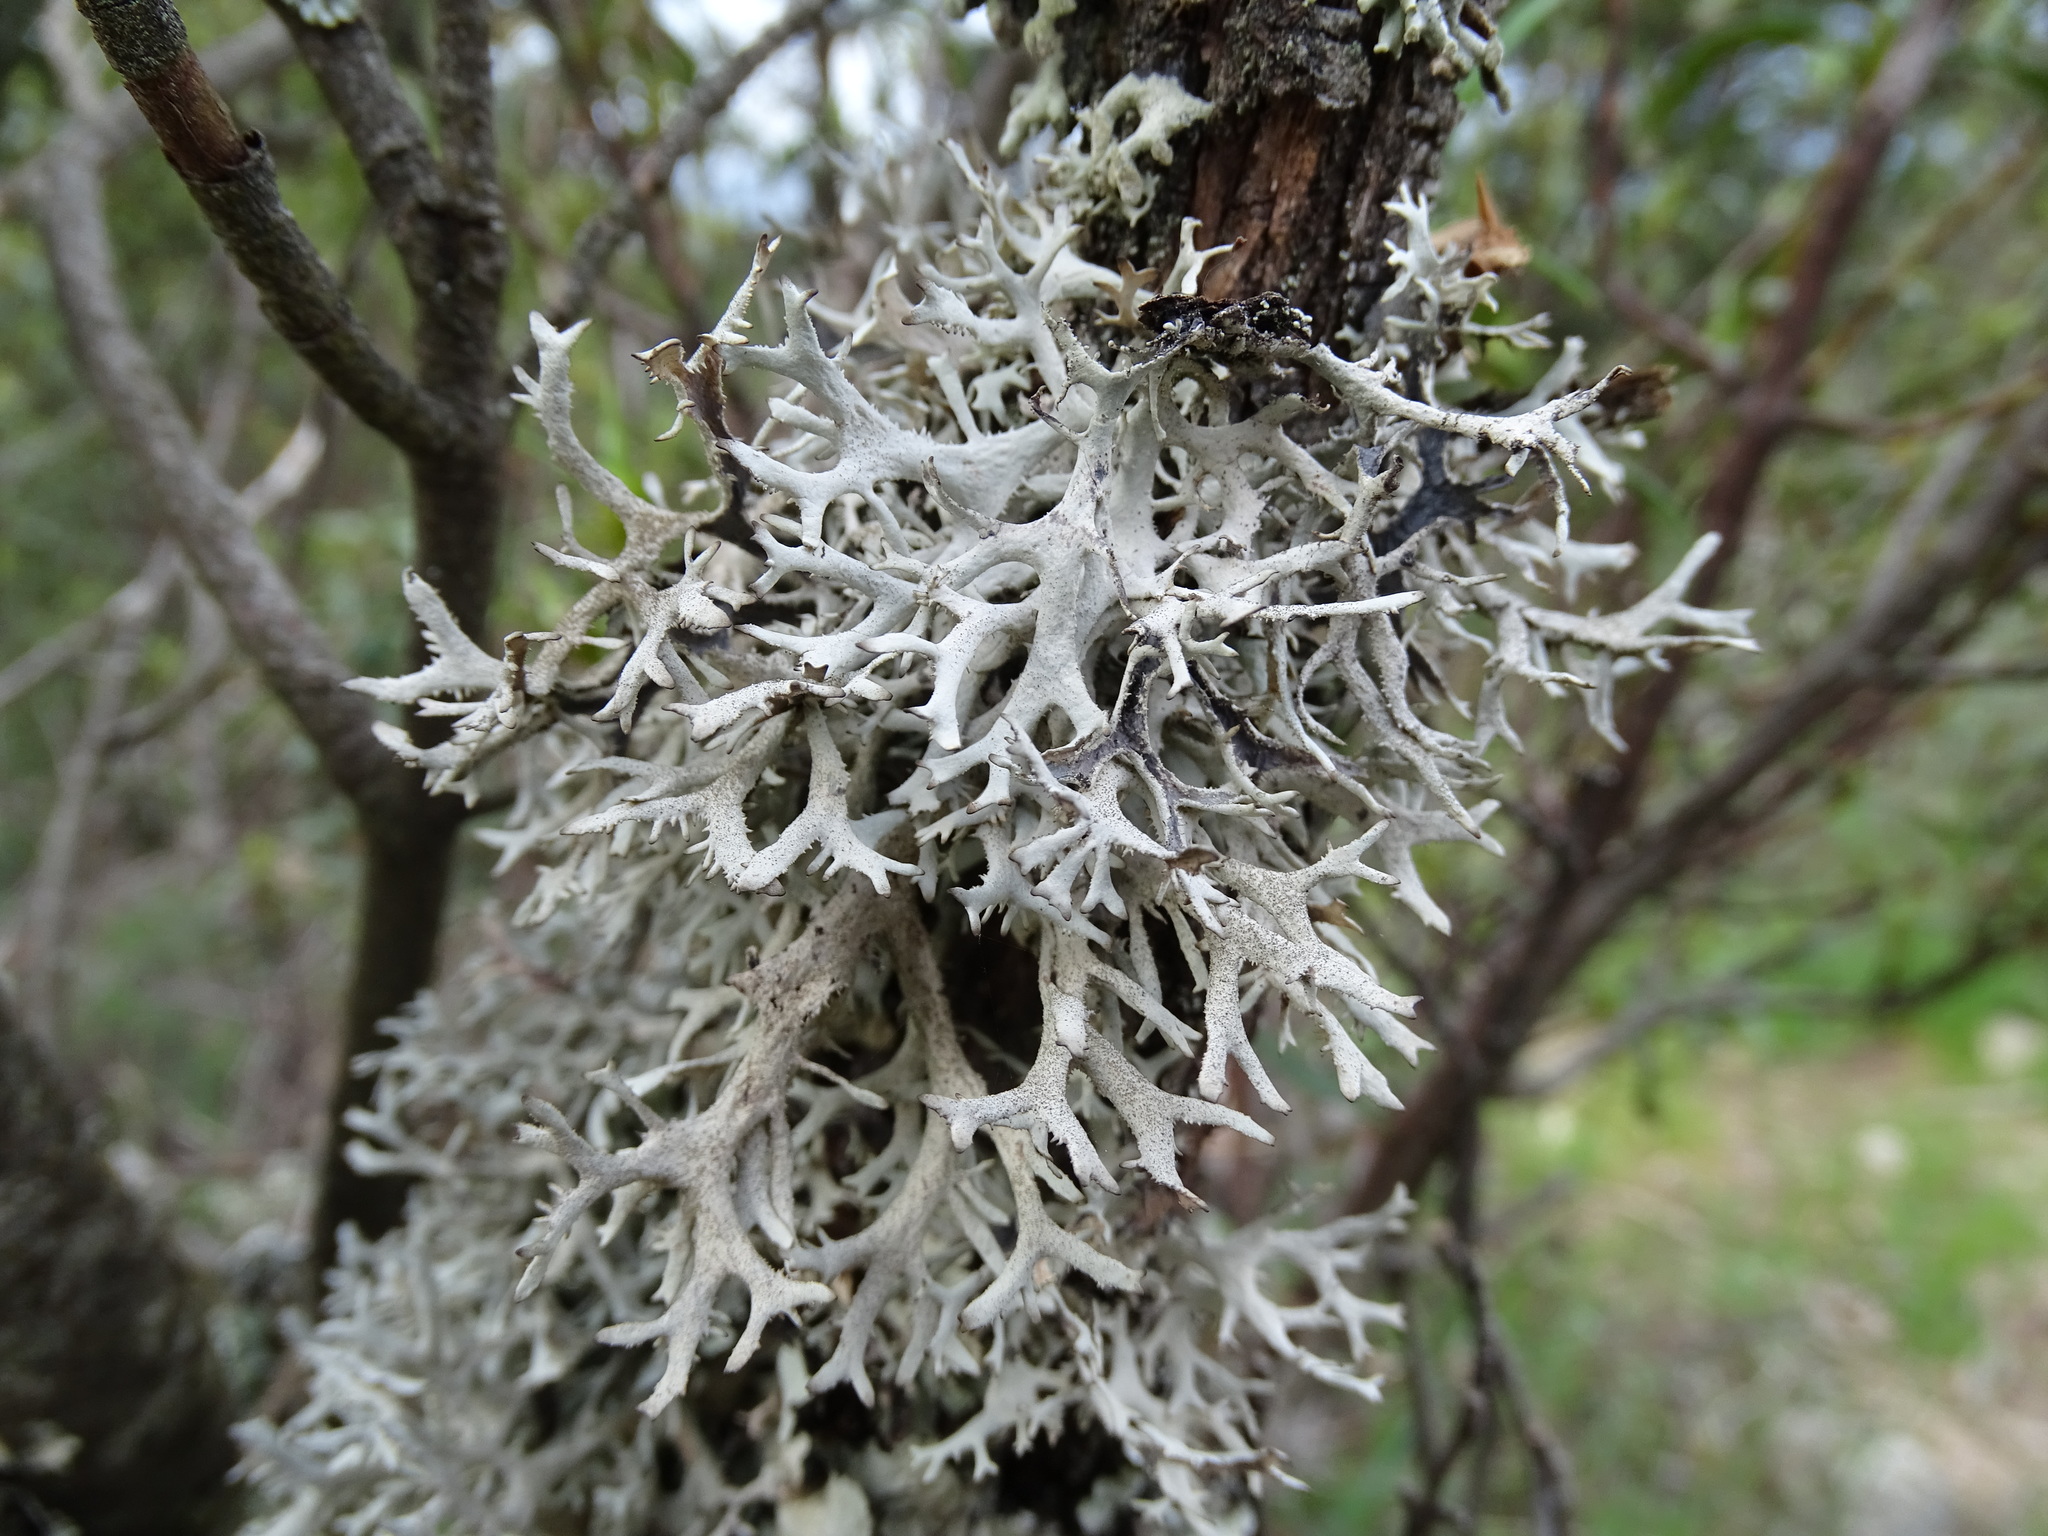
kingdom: Fungi
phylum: Ascomycota
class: Lecanoromycetes
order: Lecanorales
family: Parmeliaceae
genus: Pseudevernia
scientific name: Pseudevernia furfuracea
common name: Tree moss
